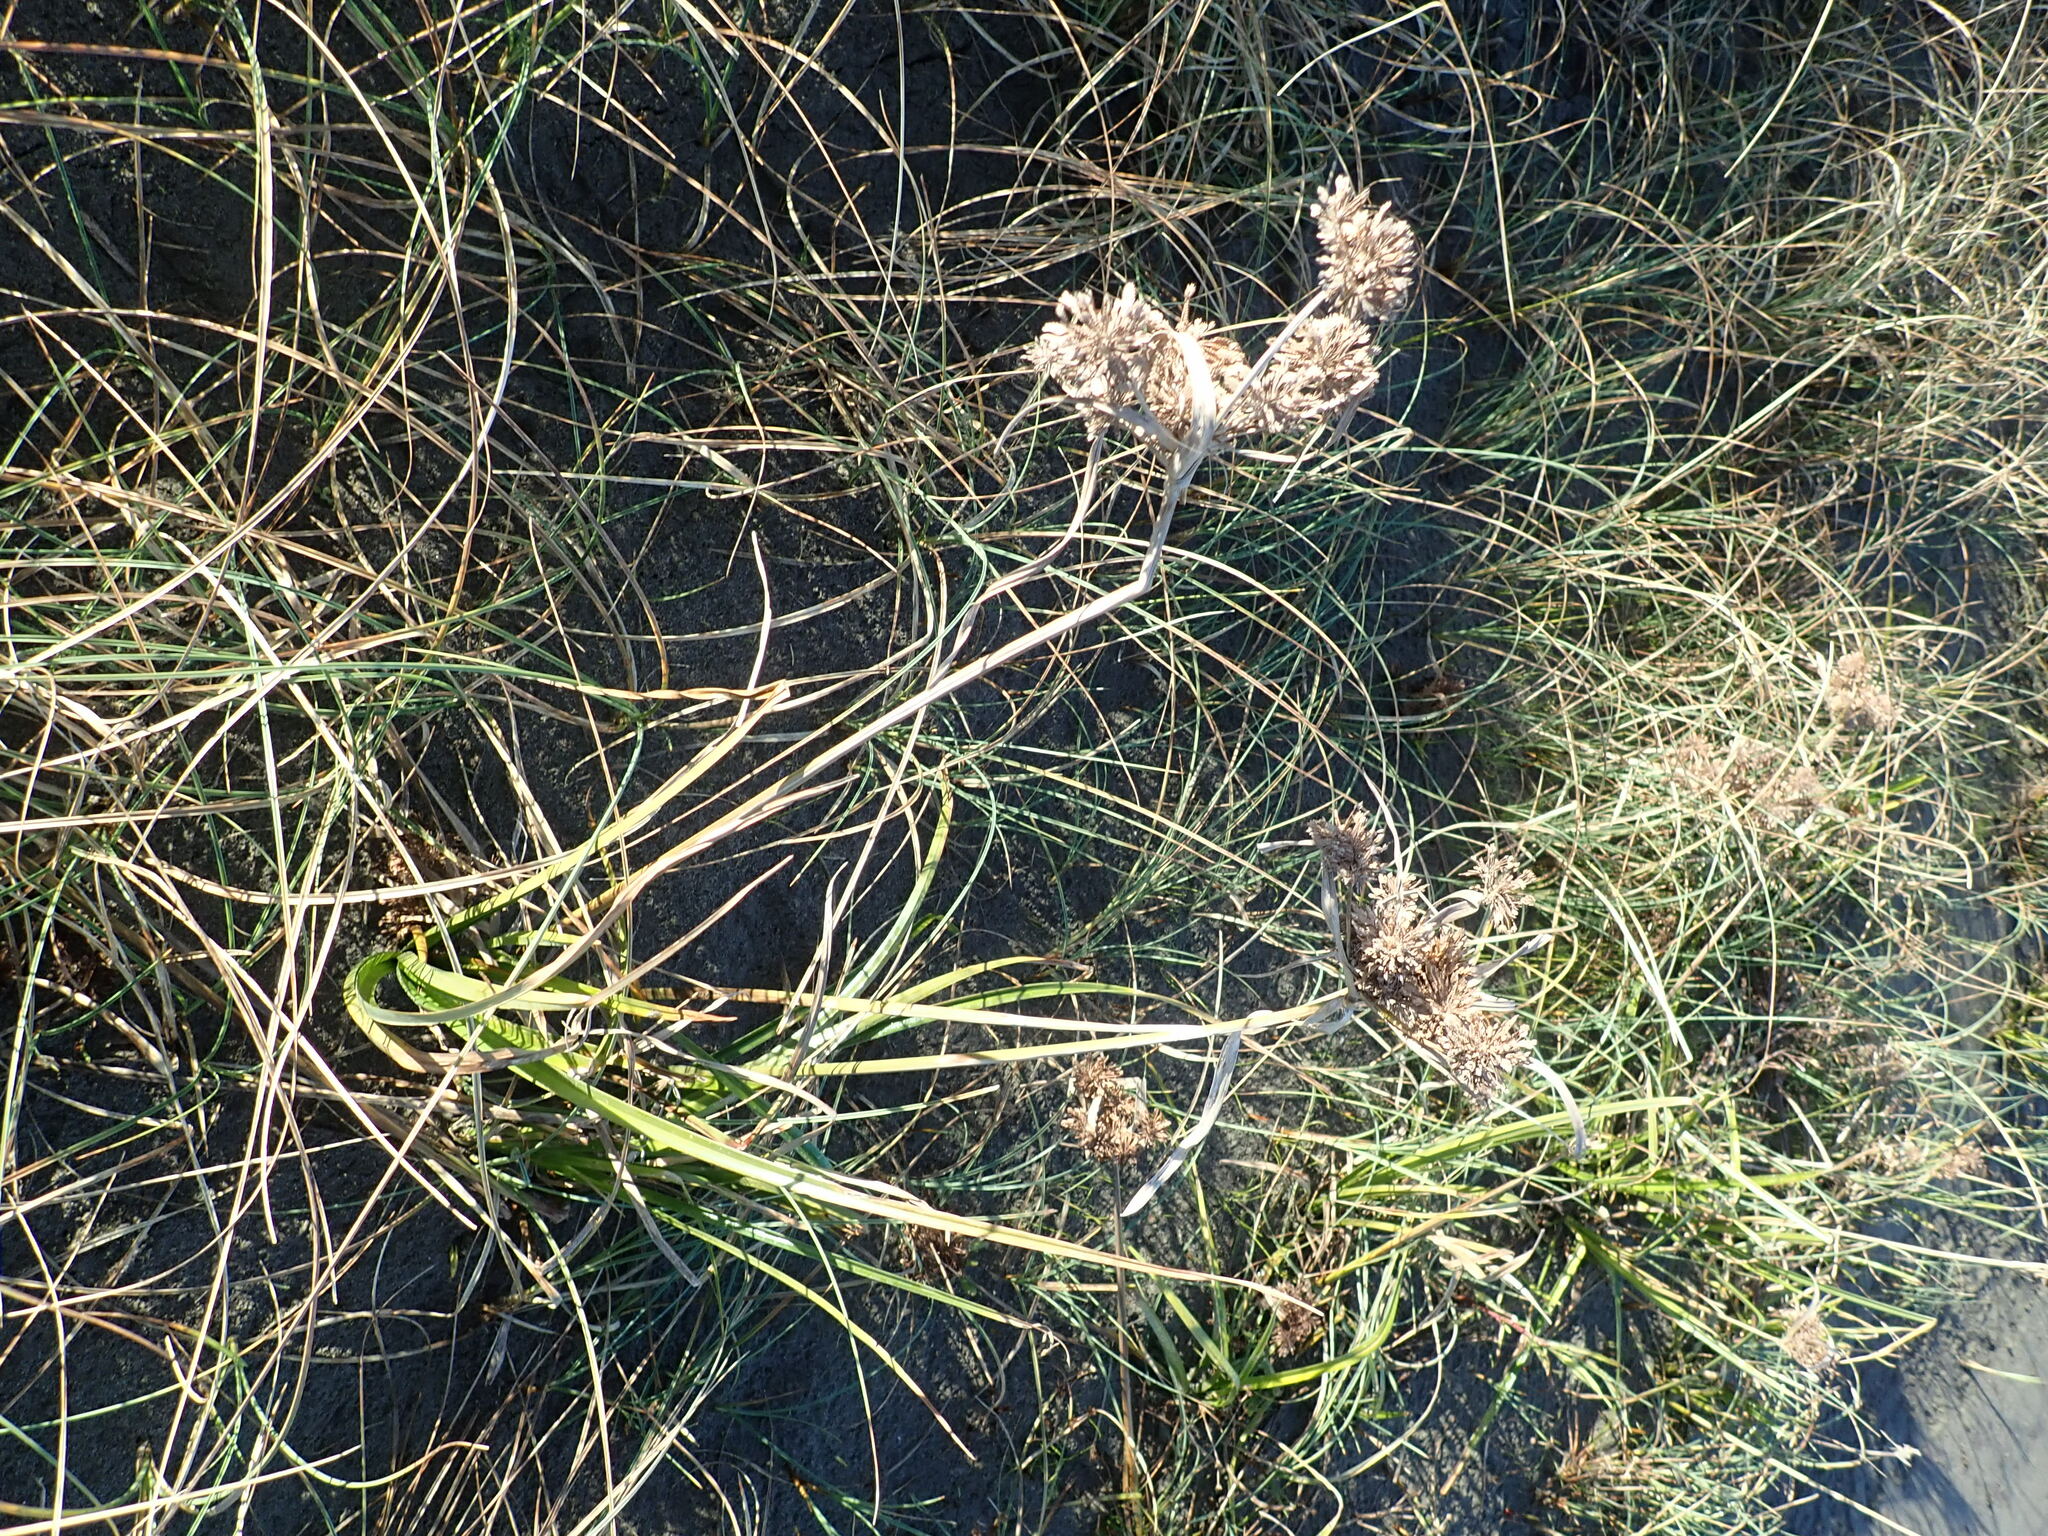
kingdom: Plantae
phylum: Tracheophyta
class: Liliopsida
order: Poales
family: Cyperaceae
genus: Cyperus
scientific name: Cyperus eragrostis
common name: Tall flatsedge
